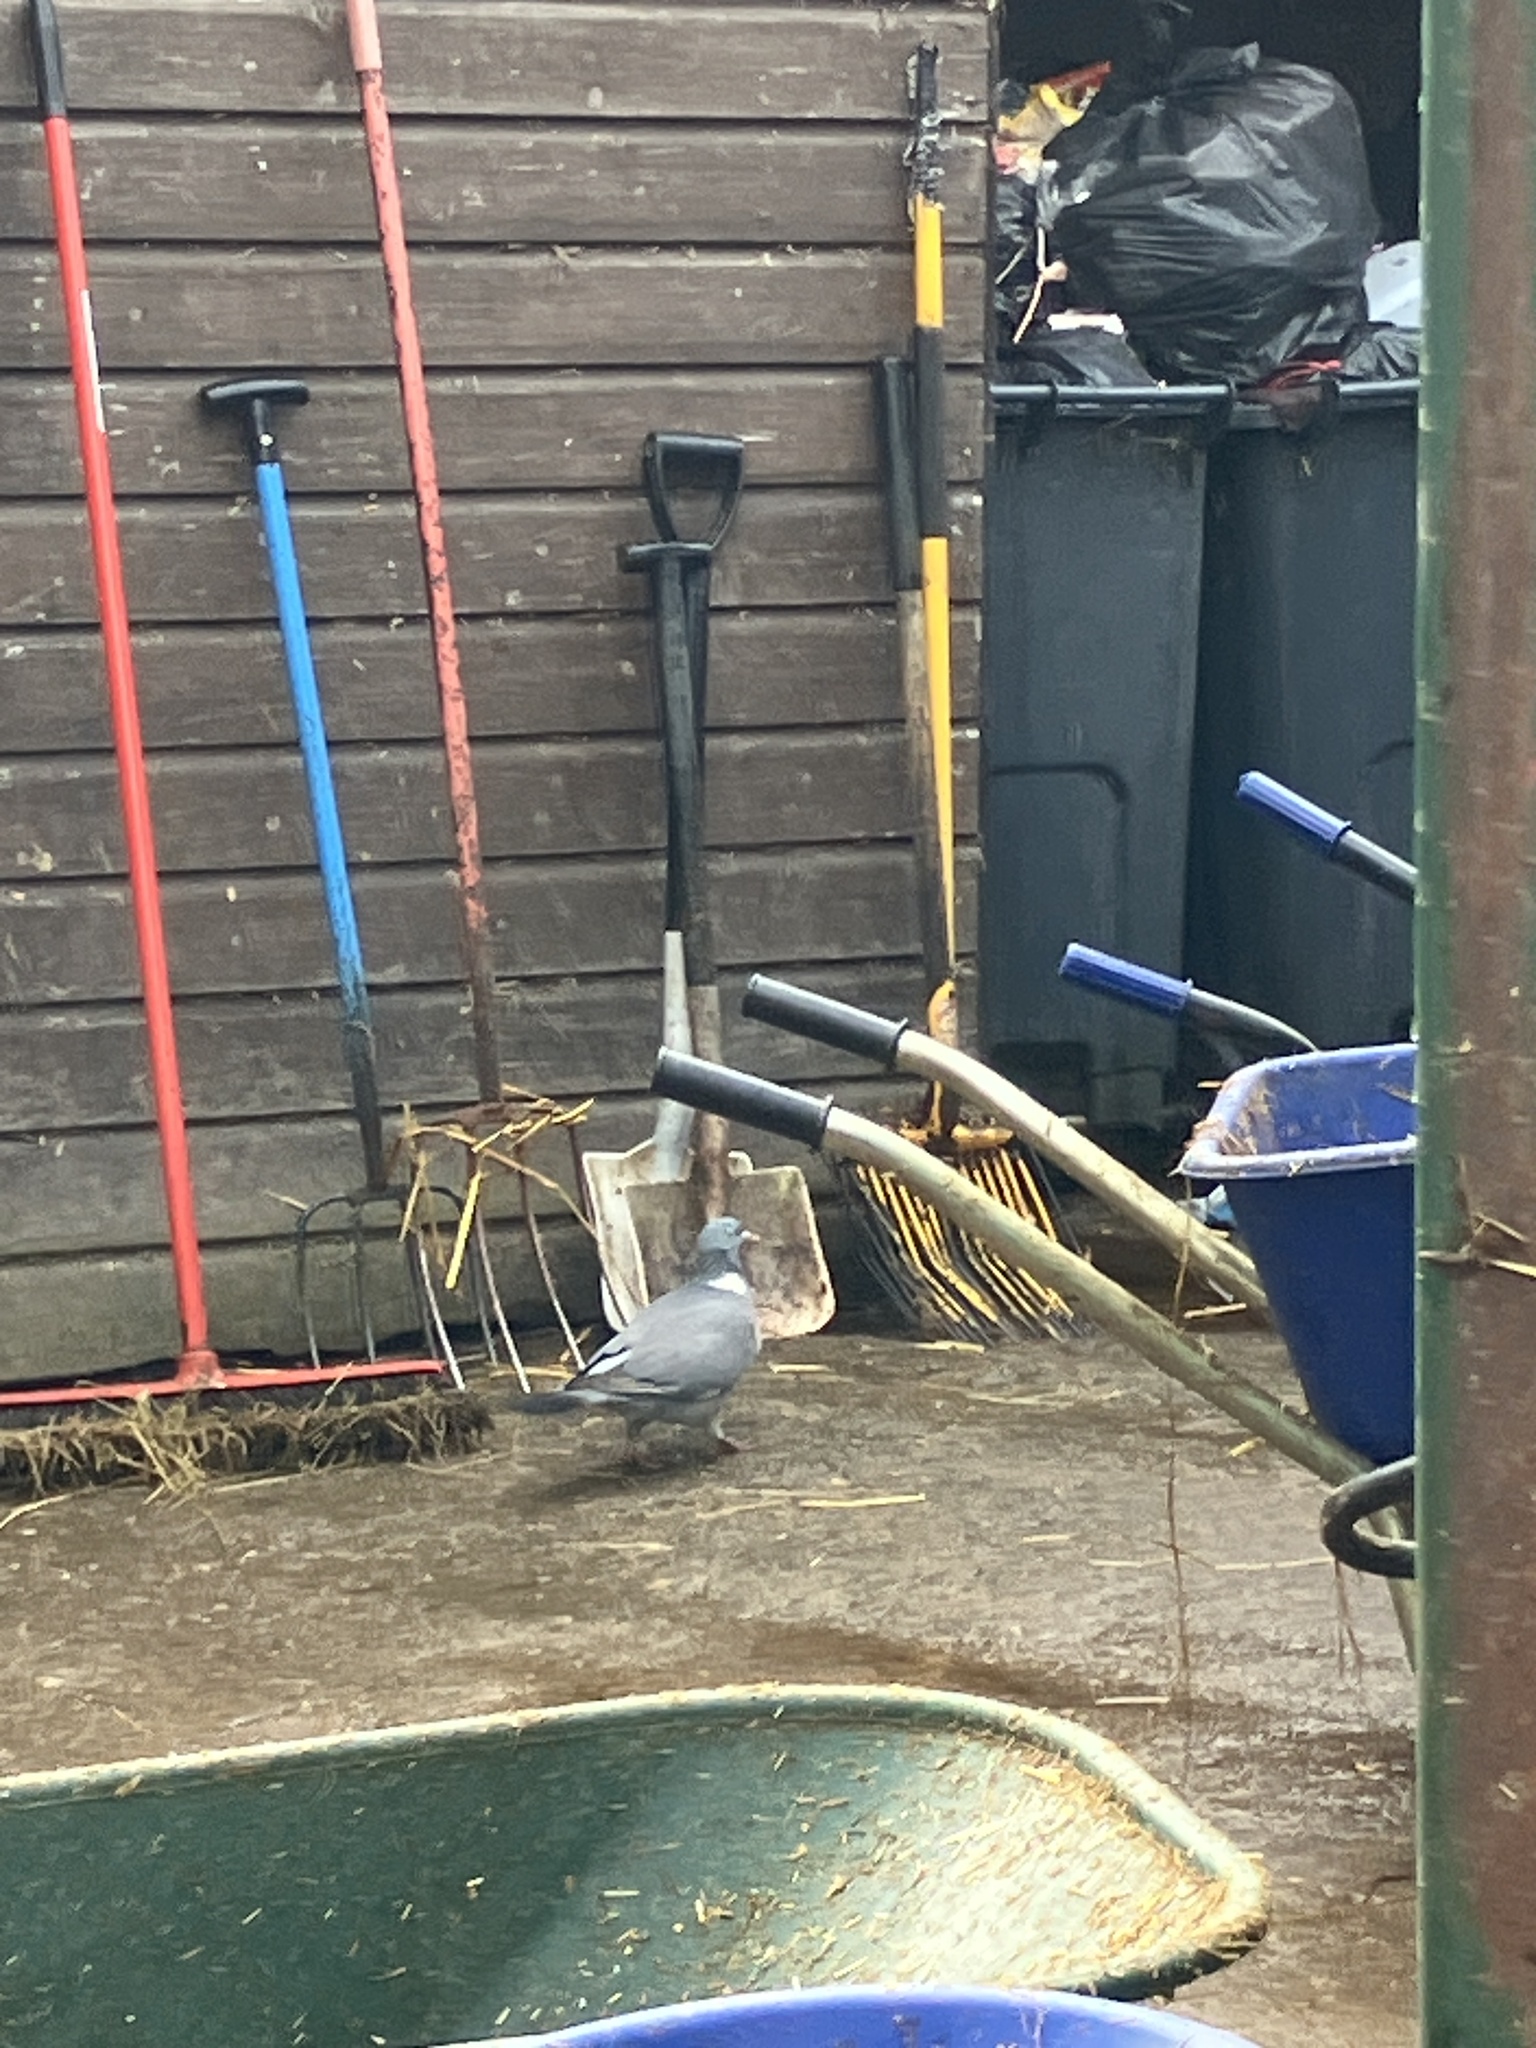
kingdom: Animalia
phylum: Chordata
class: Aves
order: Columbiformes
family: Columbidae
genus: Columba
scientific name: Columba palumbus
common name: Common wood pigeon
